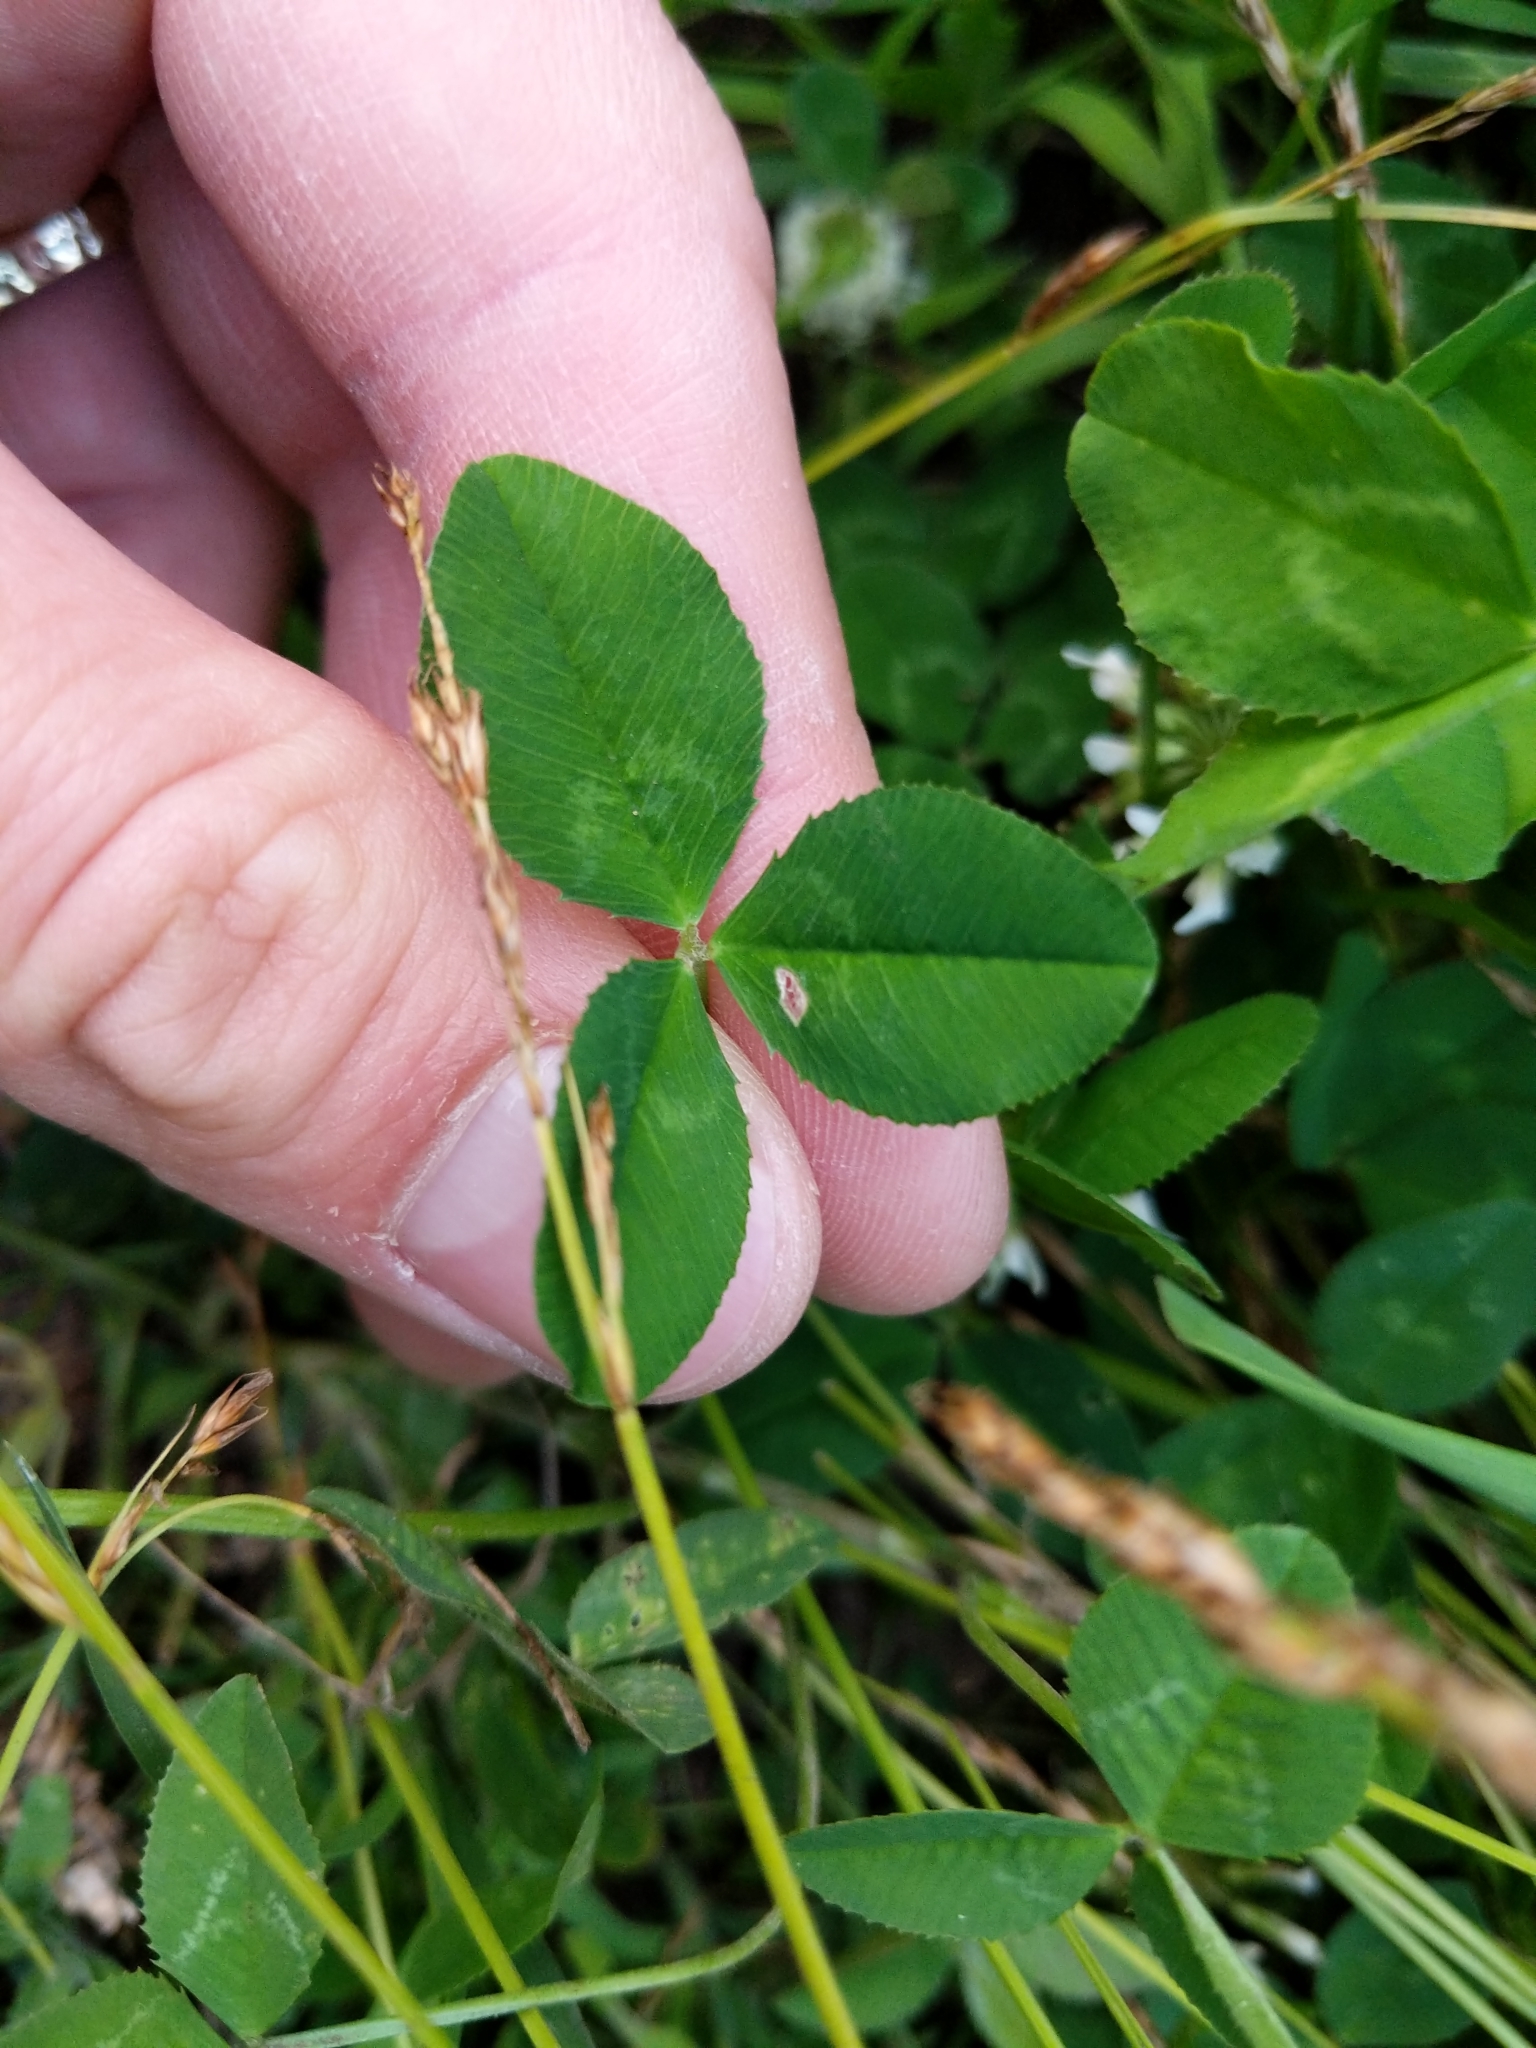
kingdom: Plantae
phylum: Tracheophyta
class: Magnoliopsida
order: Fabales
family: Fabaceae
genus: Trifolium
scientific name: Trifolium repens
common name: White clover
